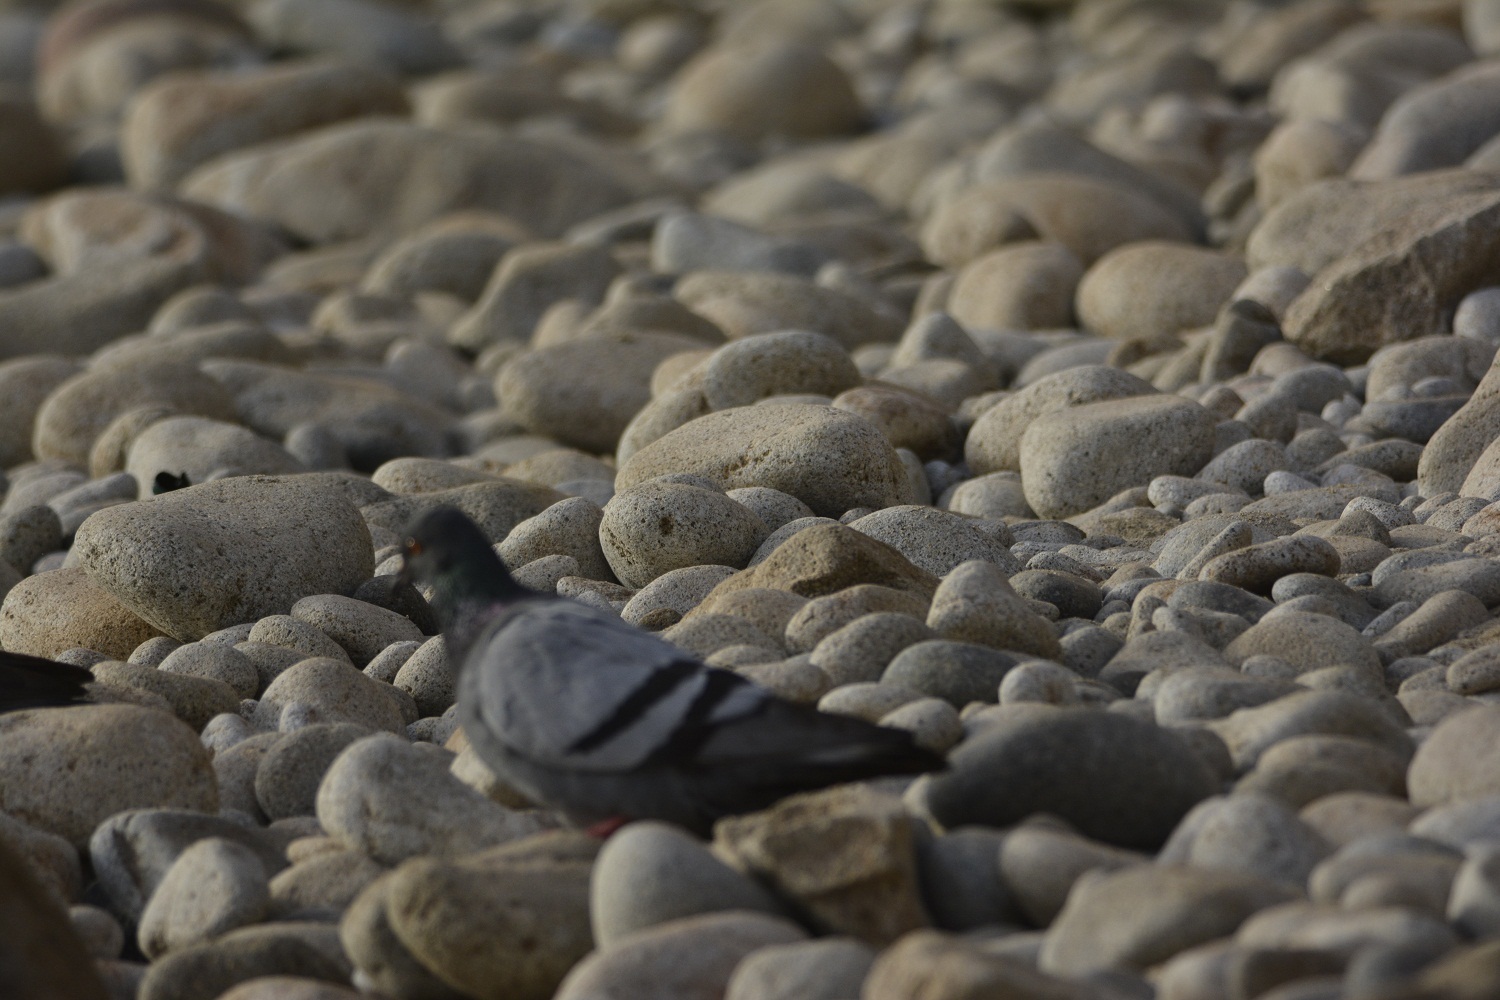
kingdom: Animalia
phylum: Chordata
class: Aves
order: Columbiformes
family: Columbidae
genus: Columba
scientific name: Columba livia
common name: Rock pigeon
